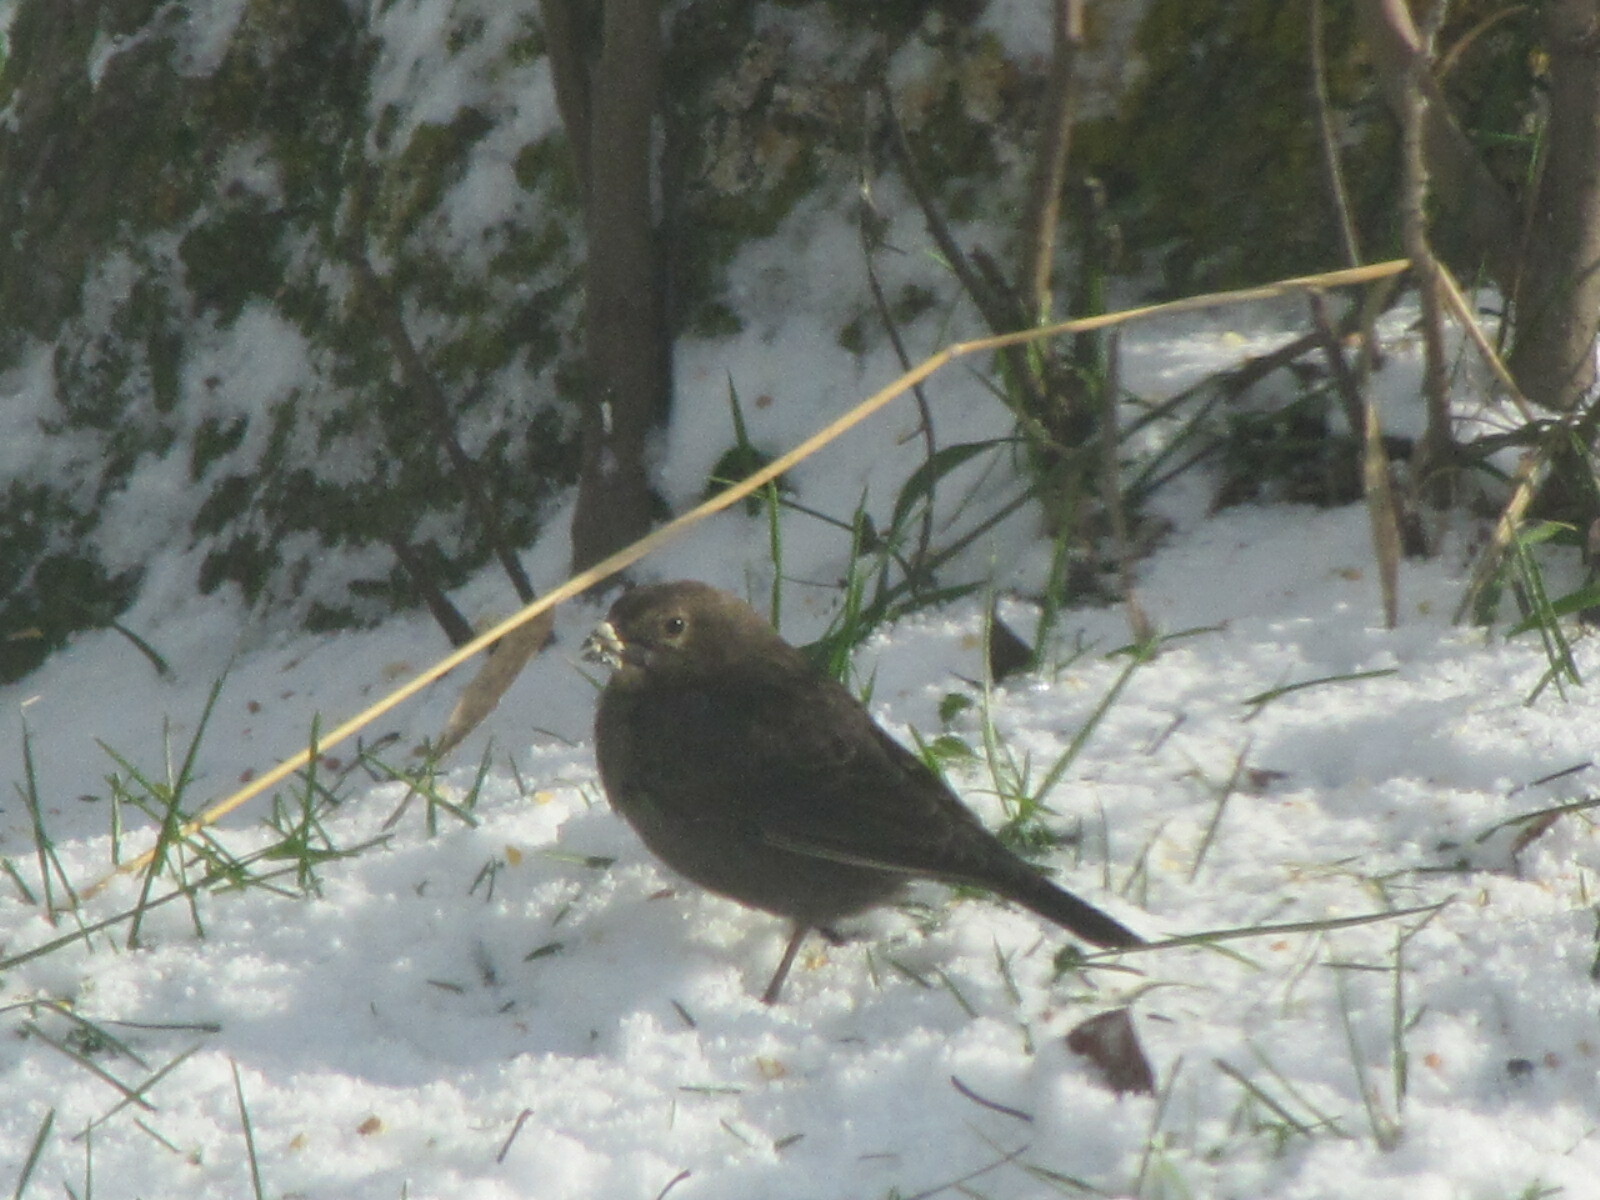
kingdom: Animalia
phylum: Chordata
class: Aves
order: Passeriformes
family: Icteridae
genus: Molothrus
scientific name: Molothrus ater
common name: Brown-headed cowbird
